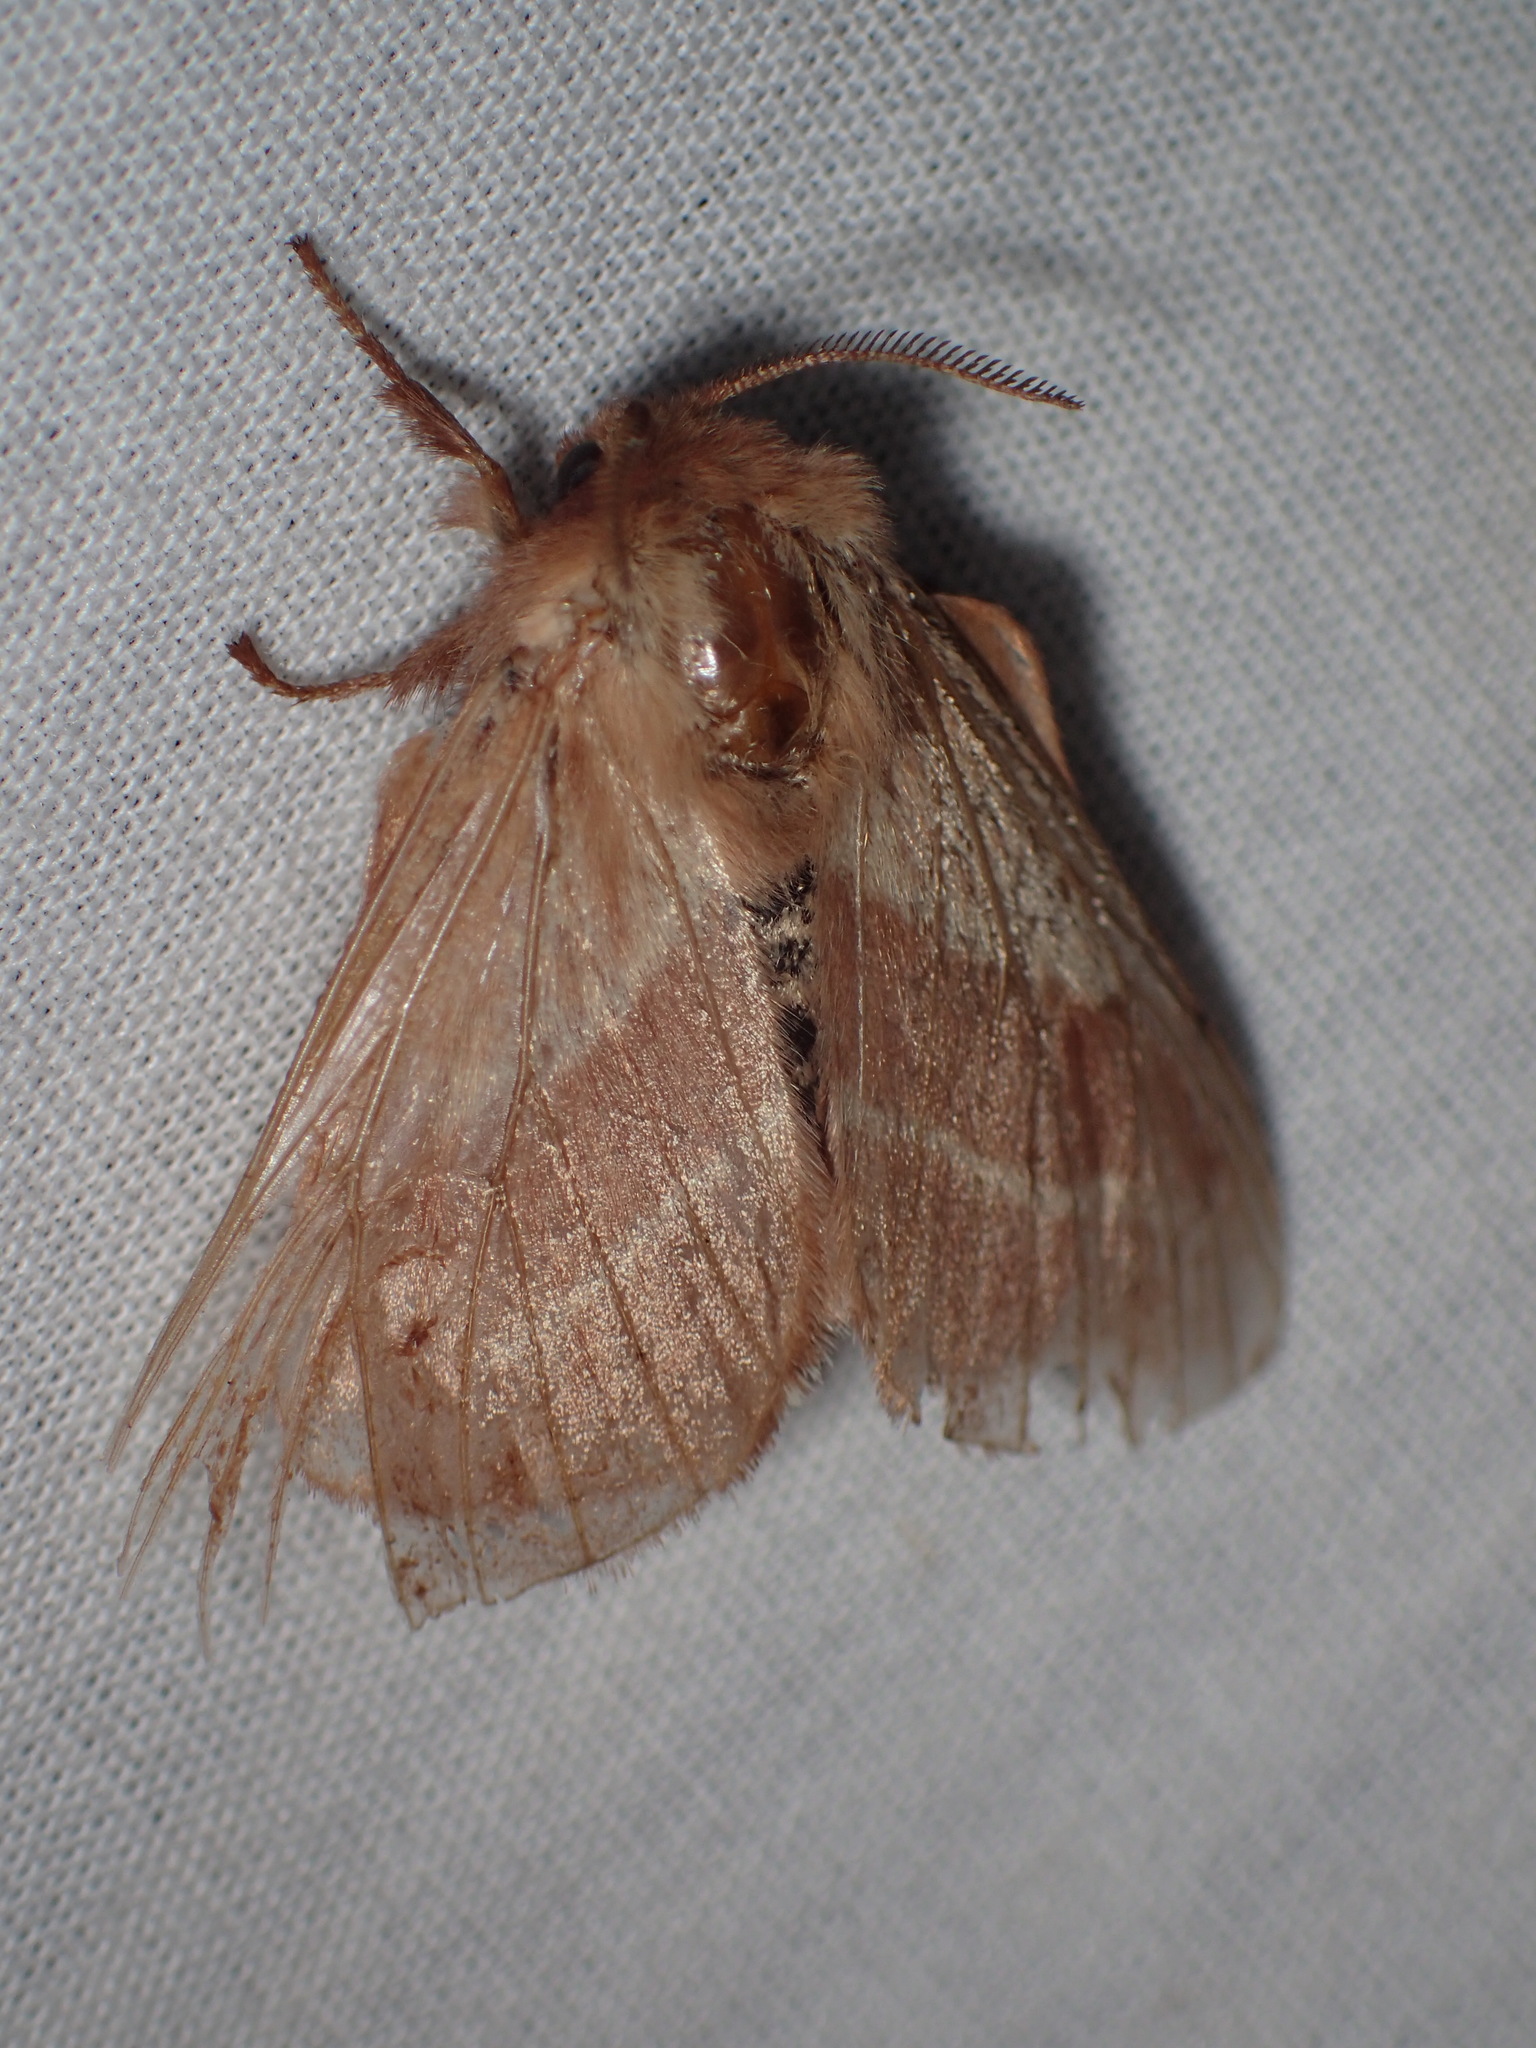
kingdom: Animalia
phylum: Arthropoda
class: Insecta
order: Lepidoptera
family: Lasiocampidae
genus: Malacosoma
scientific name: Malacosoma americana
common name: Eastern tent caterpillar moth
